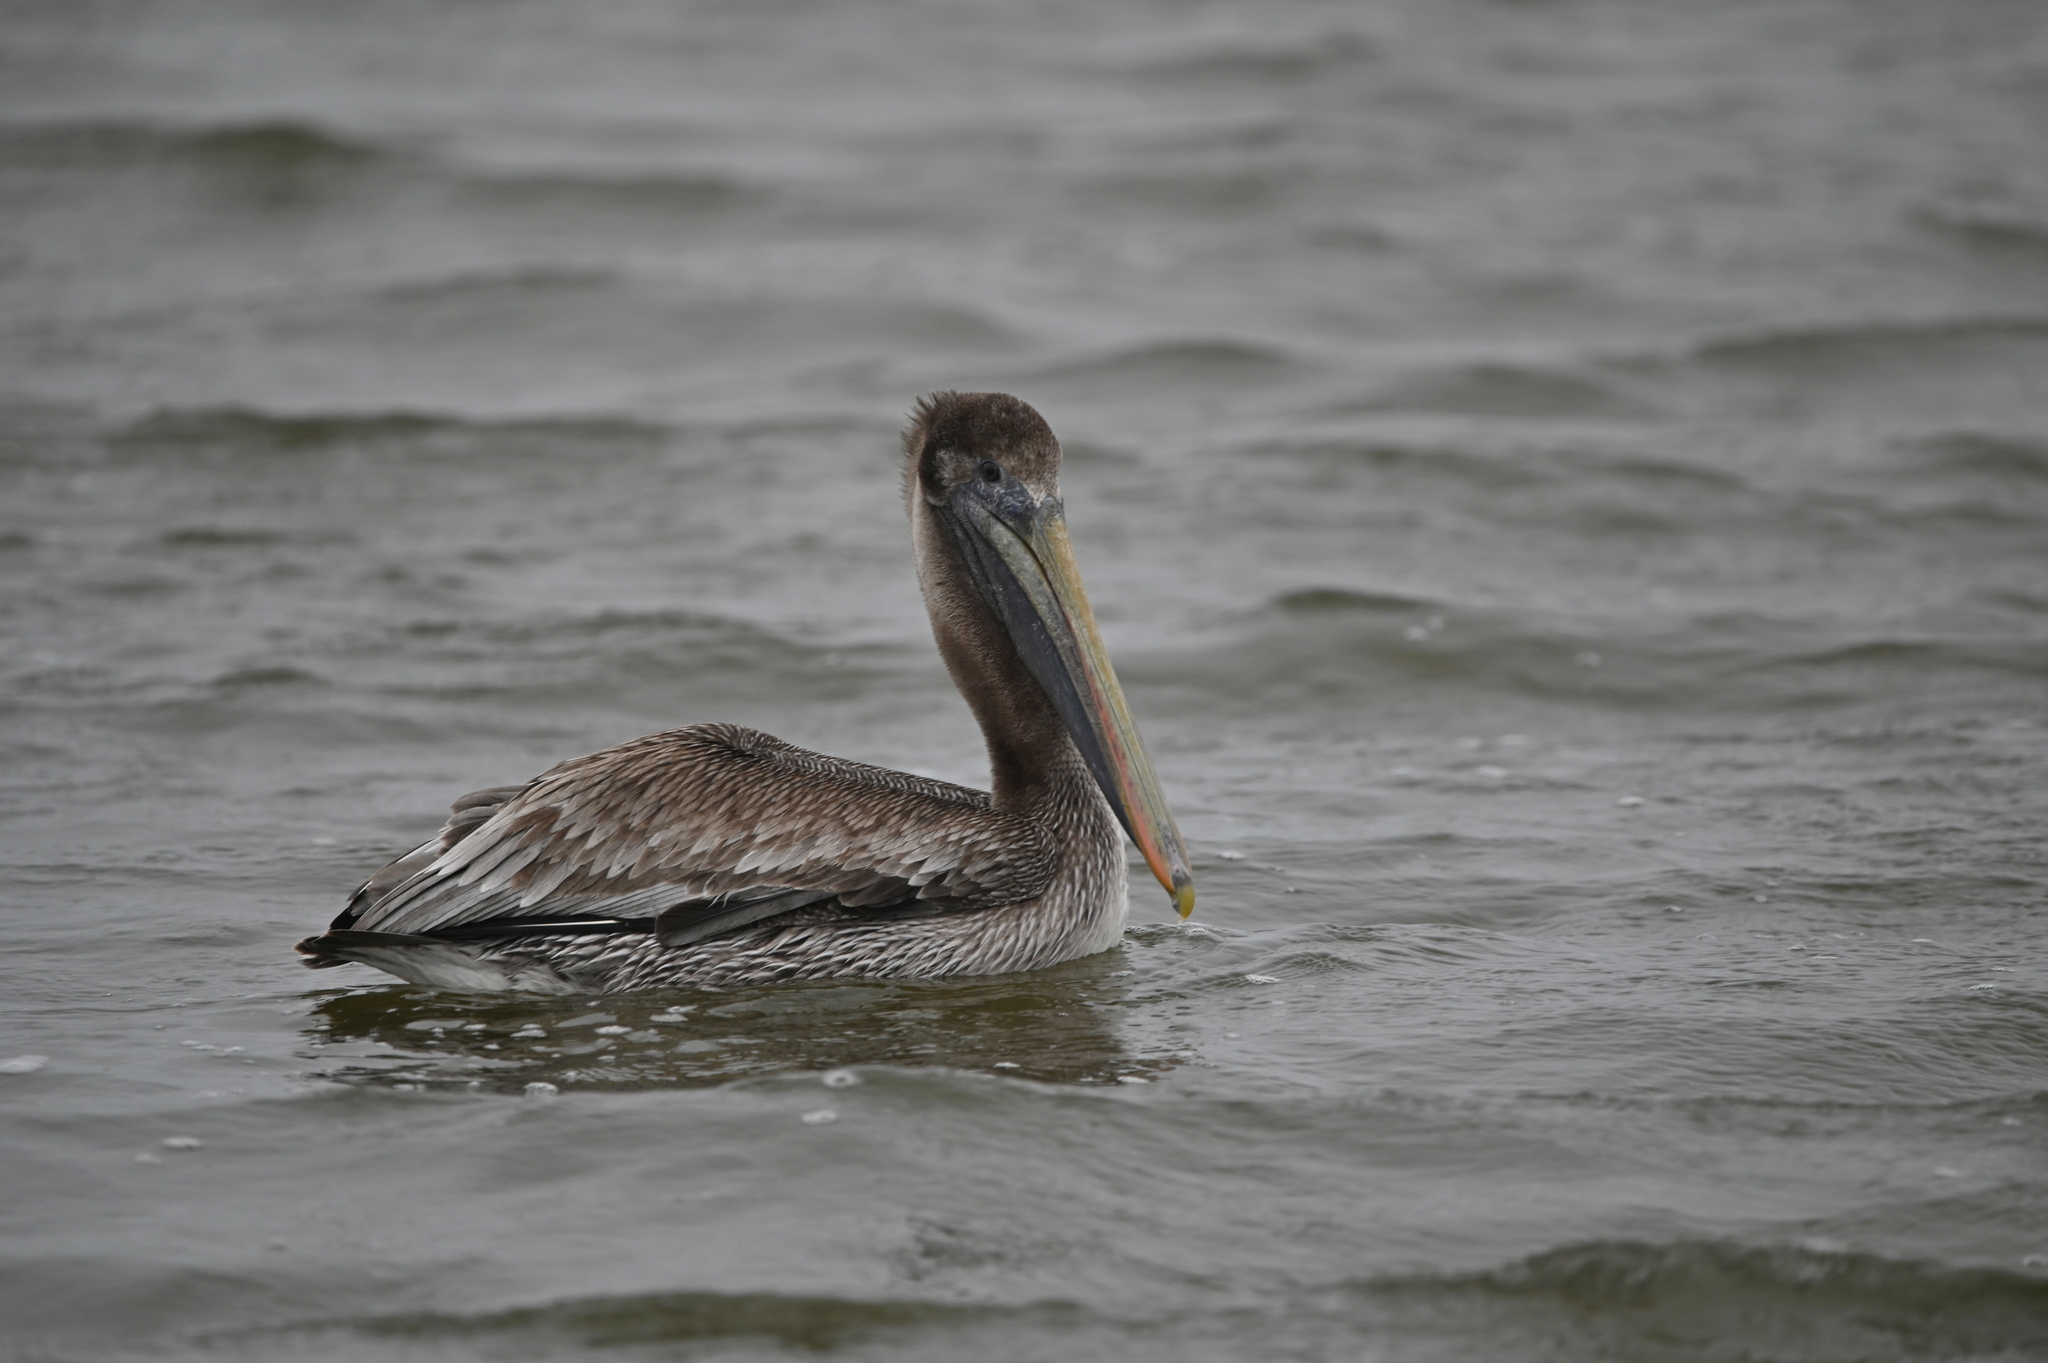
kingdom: Animalia
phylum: Chordata
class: Aves
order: Pelecaniformes
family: Pelecanidae
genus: Pelecanus
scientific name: Pelecanus occidentalis
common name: Brown pelican
